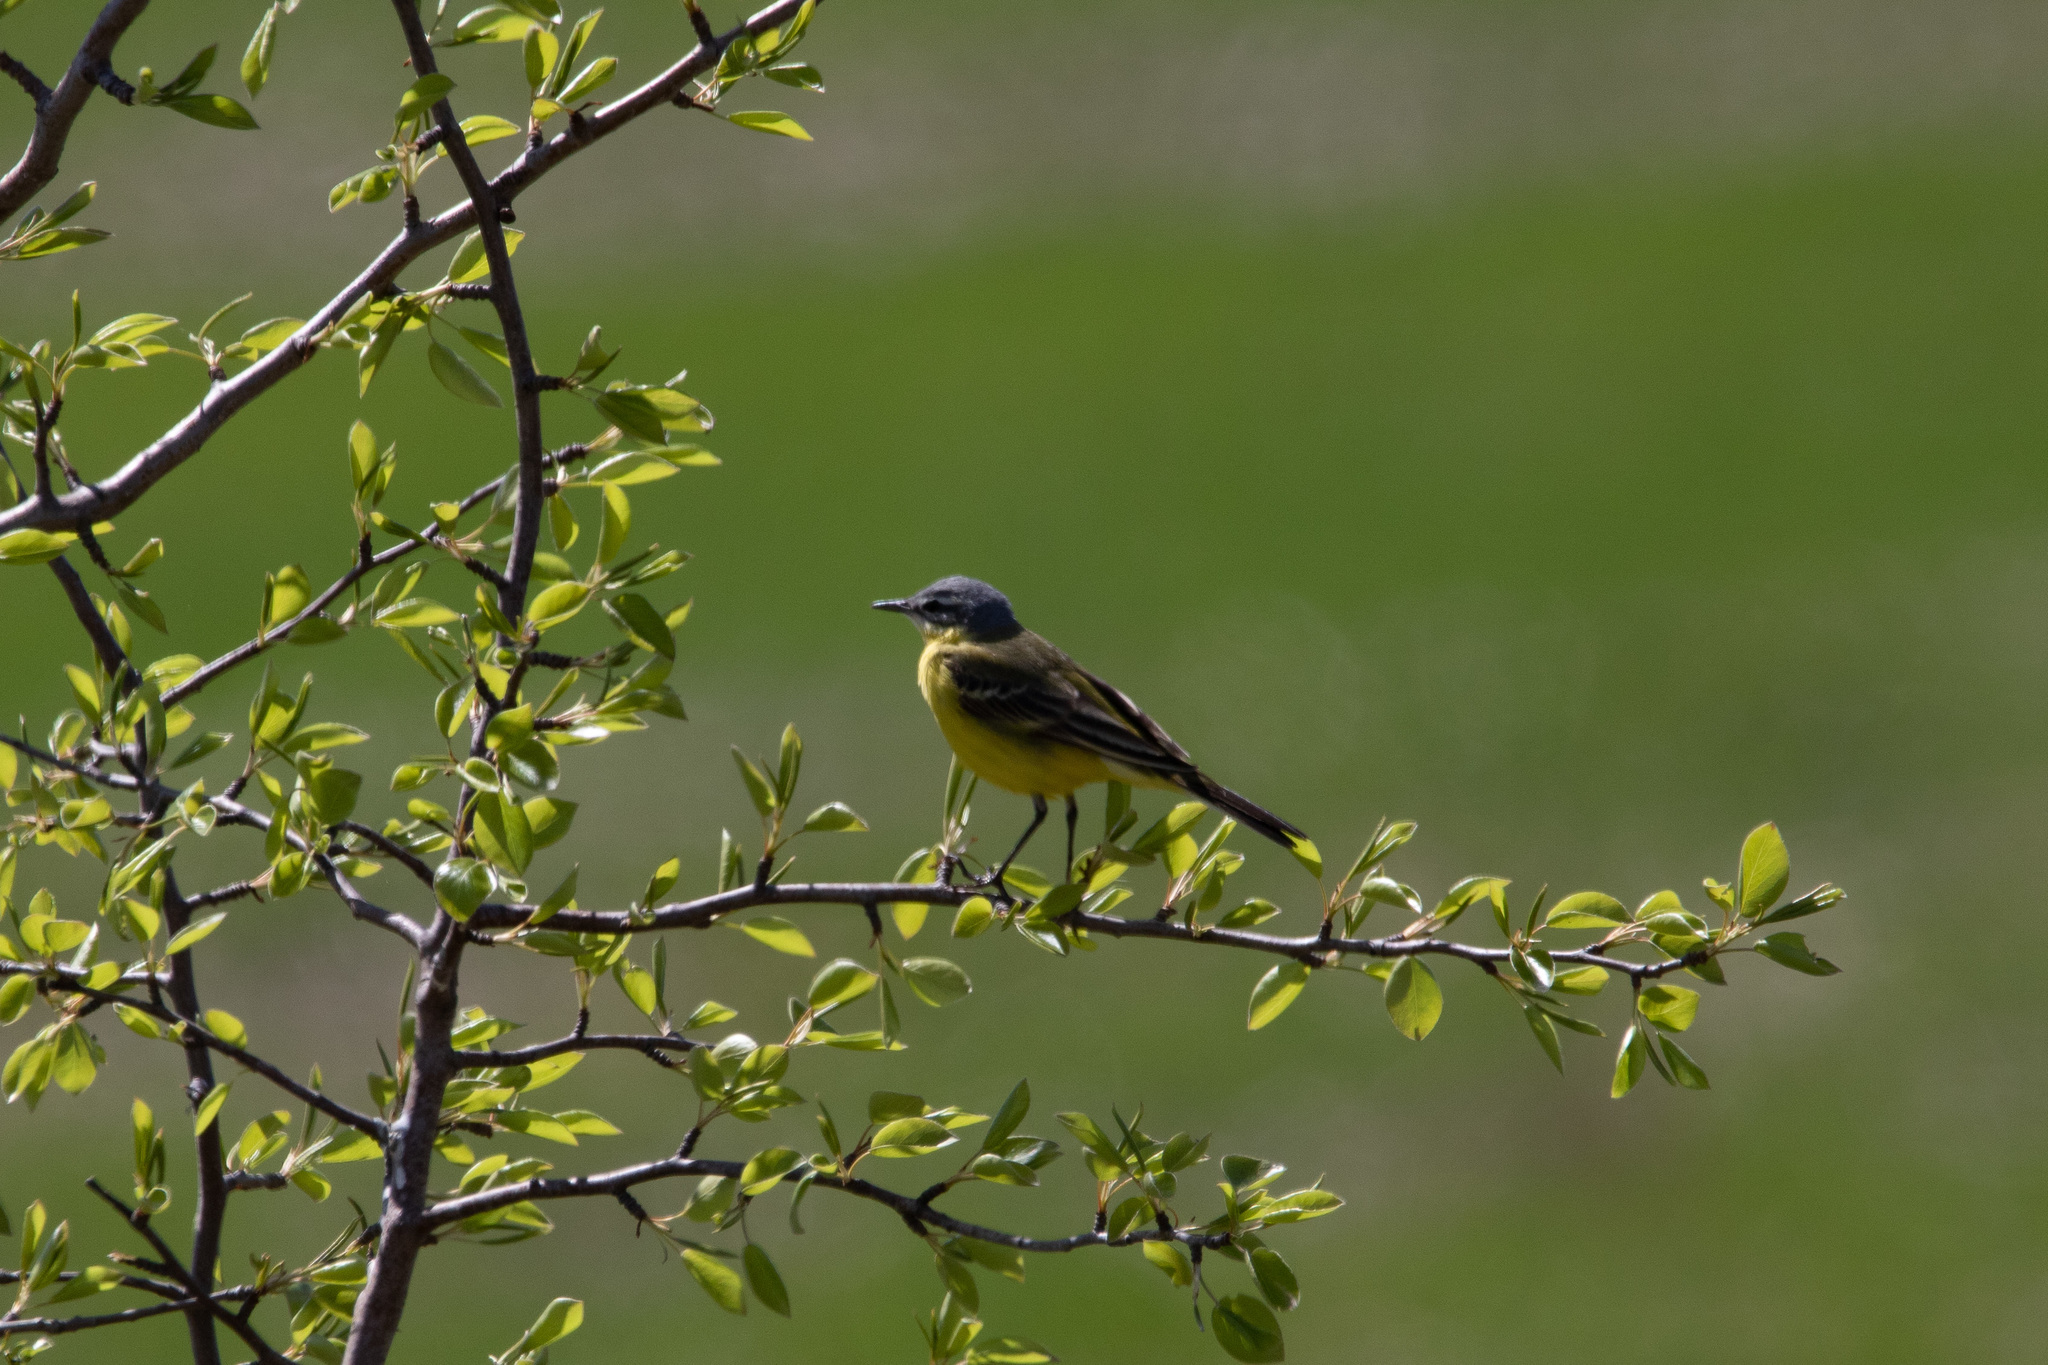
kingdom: Animalia
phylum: Chordata
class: Aves
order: Passeriformes
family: Motacillidae
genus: Motacilla
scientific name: Motacilla flava
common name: Western yellow wagtail
